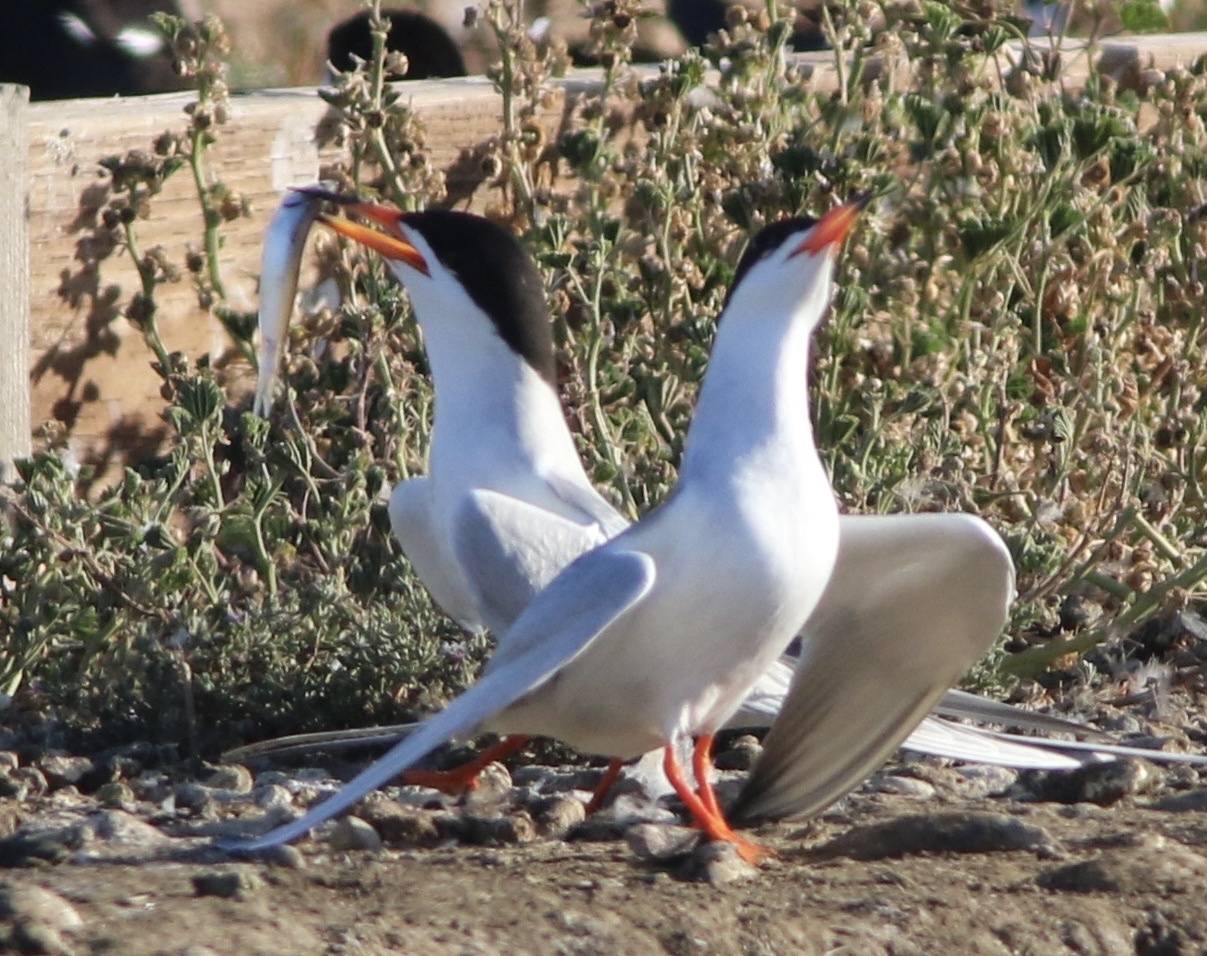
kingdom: Animalia
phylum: Chordata
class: Aves
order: Charadriiformes
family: Laridae
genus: Sterna
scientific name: Sterna forsteri
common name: Forster's tern
